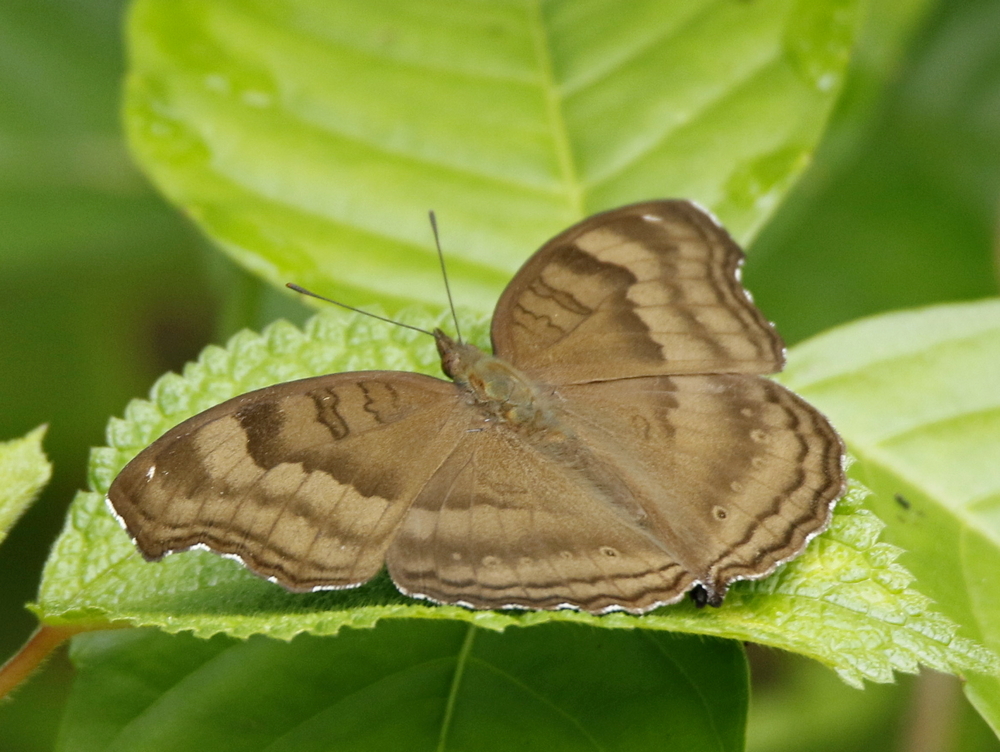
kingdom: Animalia
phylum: Arthropoda
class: Insecta
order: Lepidoptera
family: Nymphalidae
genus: Junonia
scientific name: Junonia iphita
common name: Chocolate pansy
